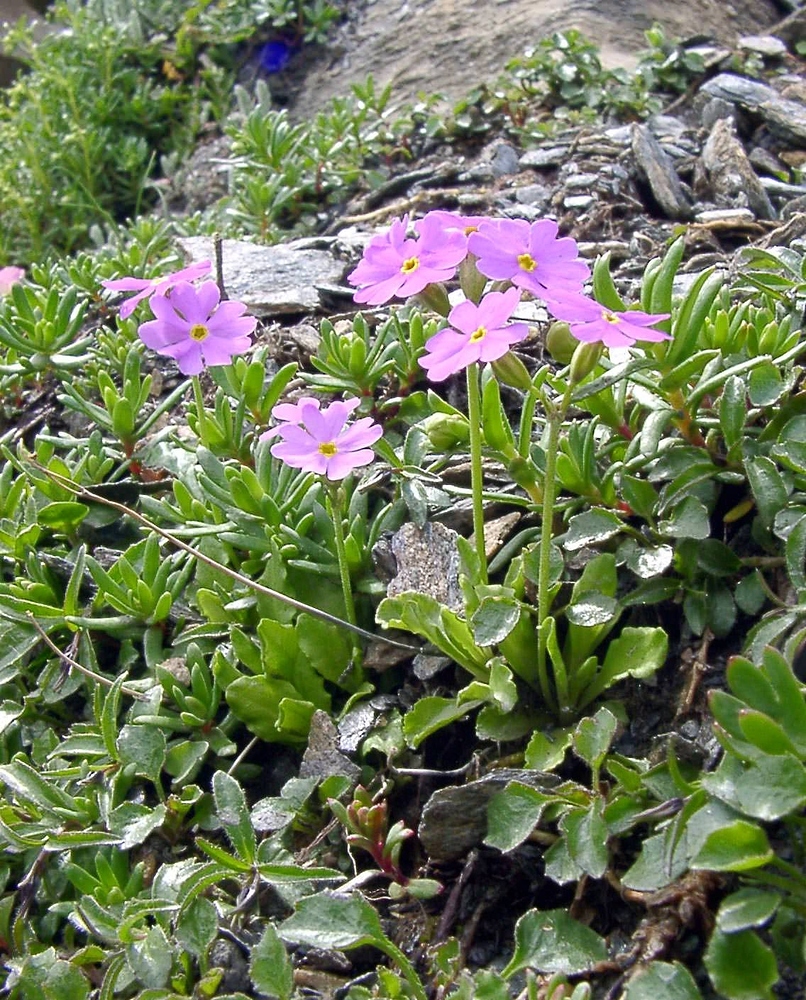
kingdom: Plantae
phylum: Tracheophyta
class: Magnoliopsida
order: Ericales
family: Primulaceae
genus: Primula
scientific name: Primula farinosa
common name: Bird's-eye primrose
